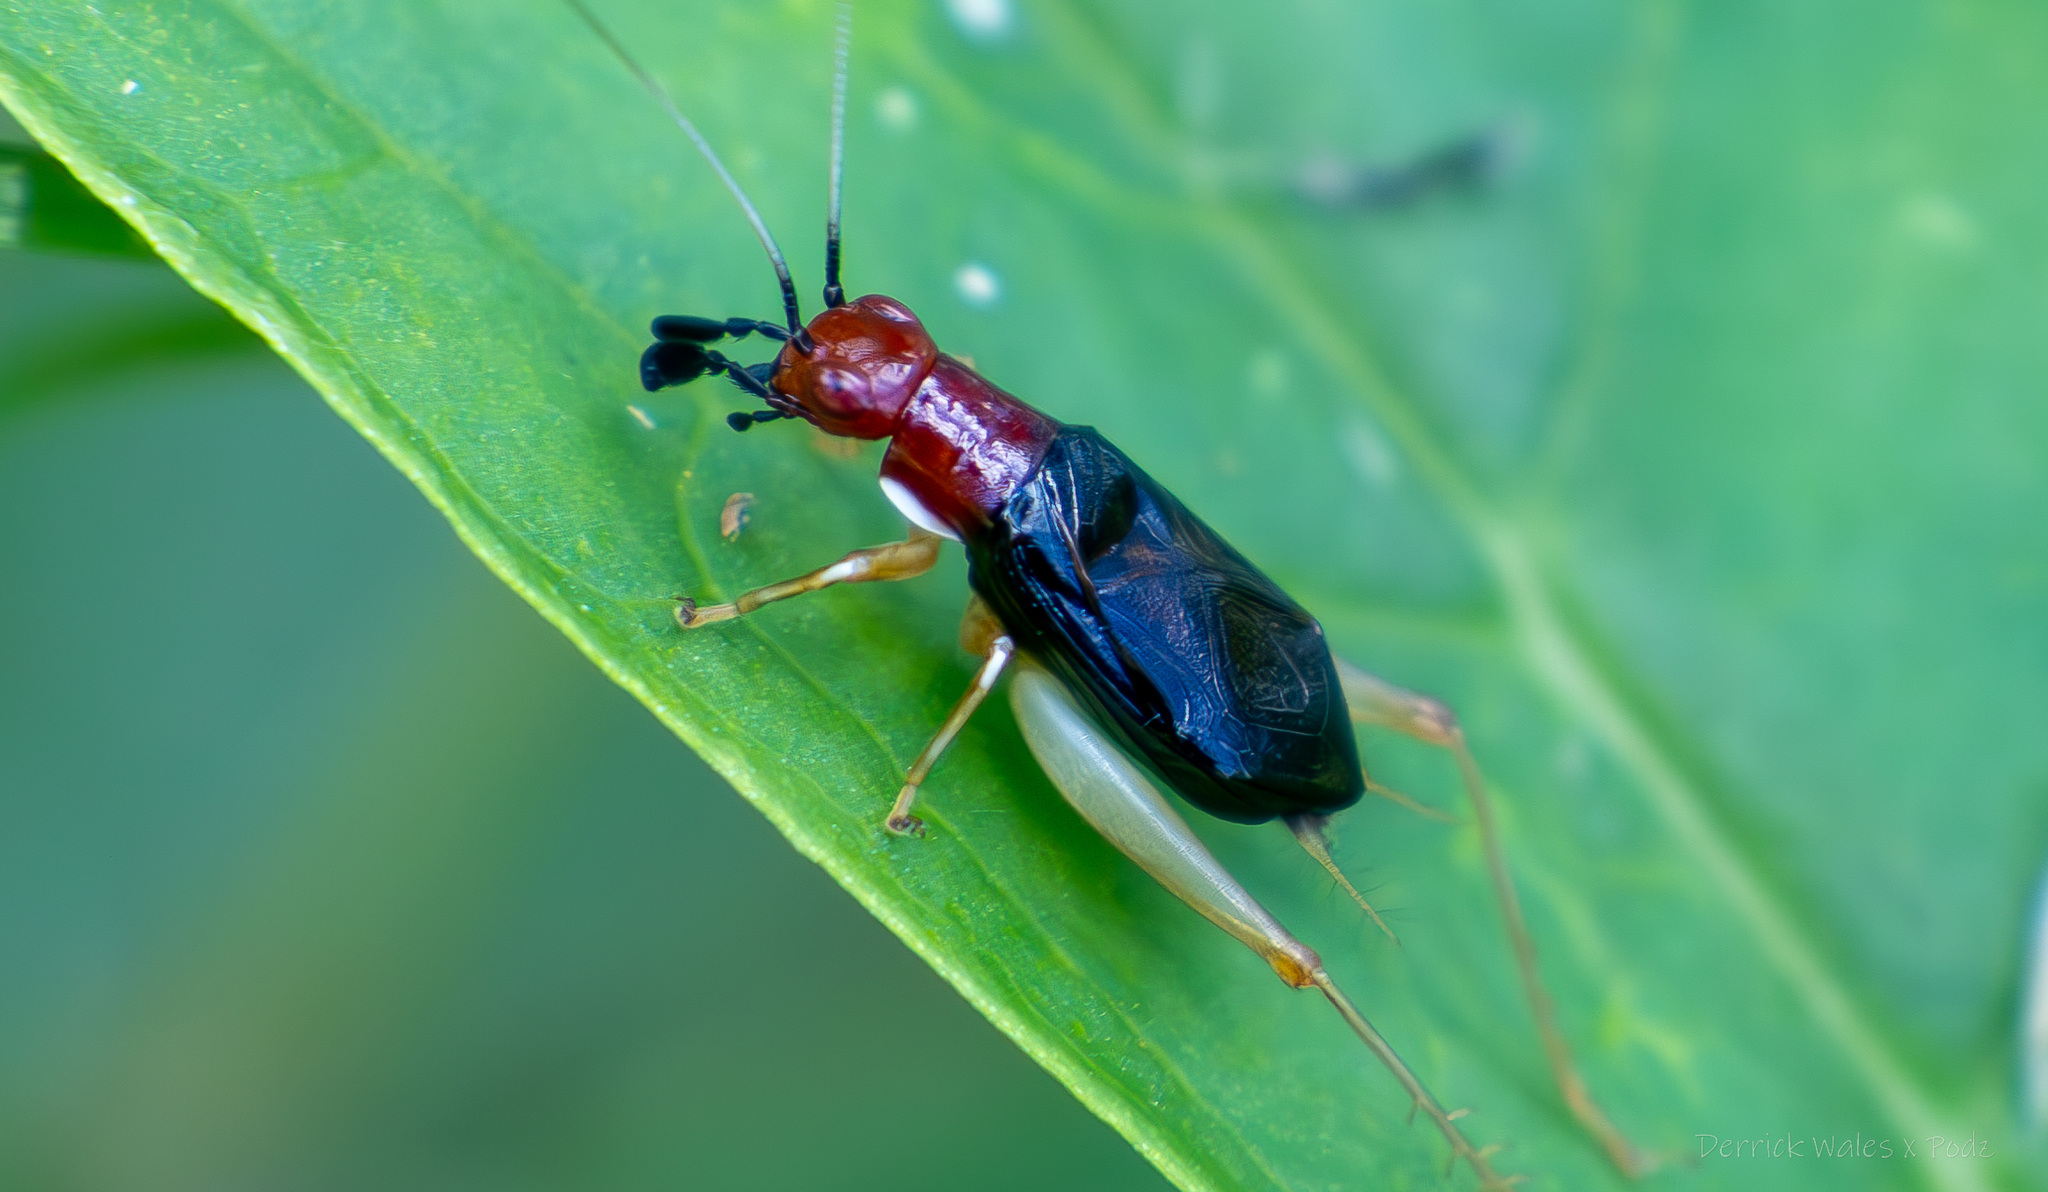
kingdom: Animalia
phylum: Arthropoda
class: Insecta
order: Orthoptera
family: Trigonidiidae
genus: Phyllopalpus
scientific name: Phyllopalpus pulchellus
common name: Handsome trig
